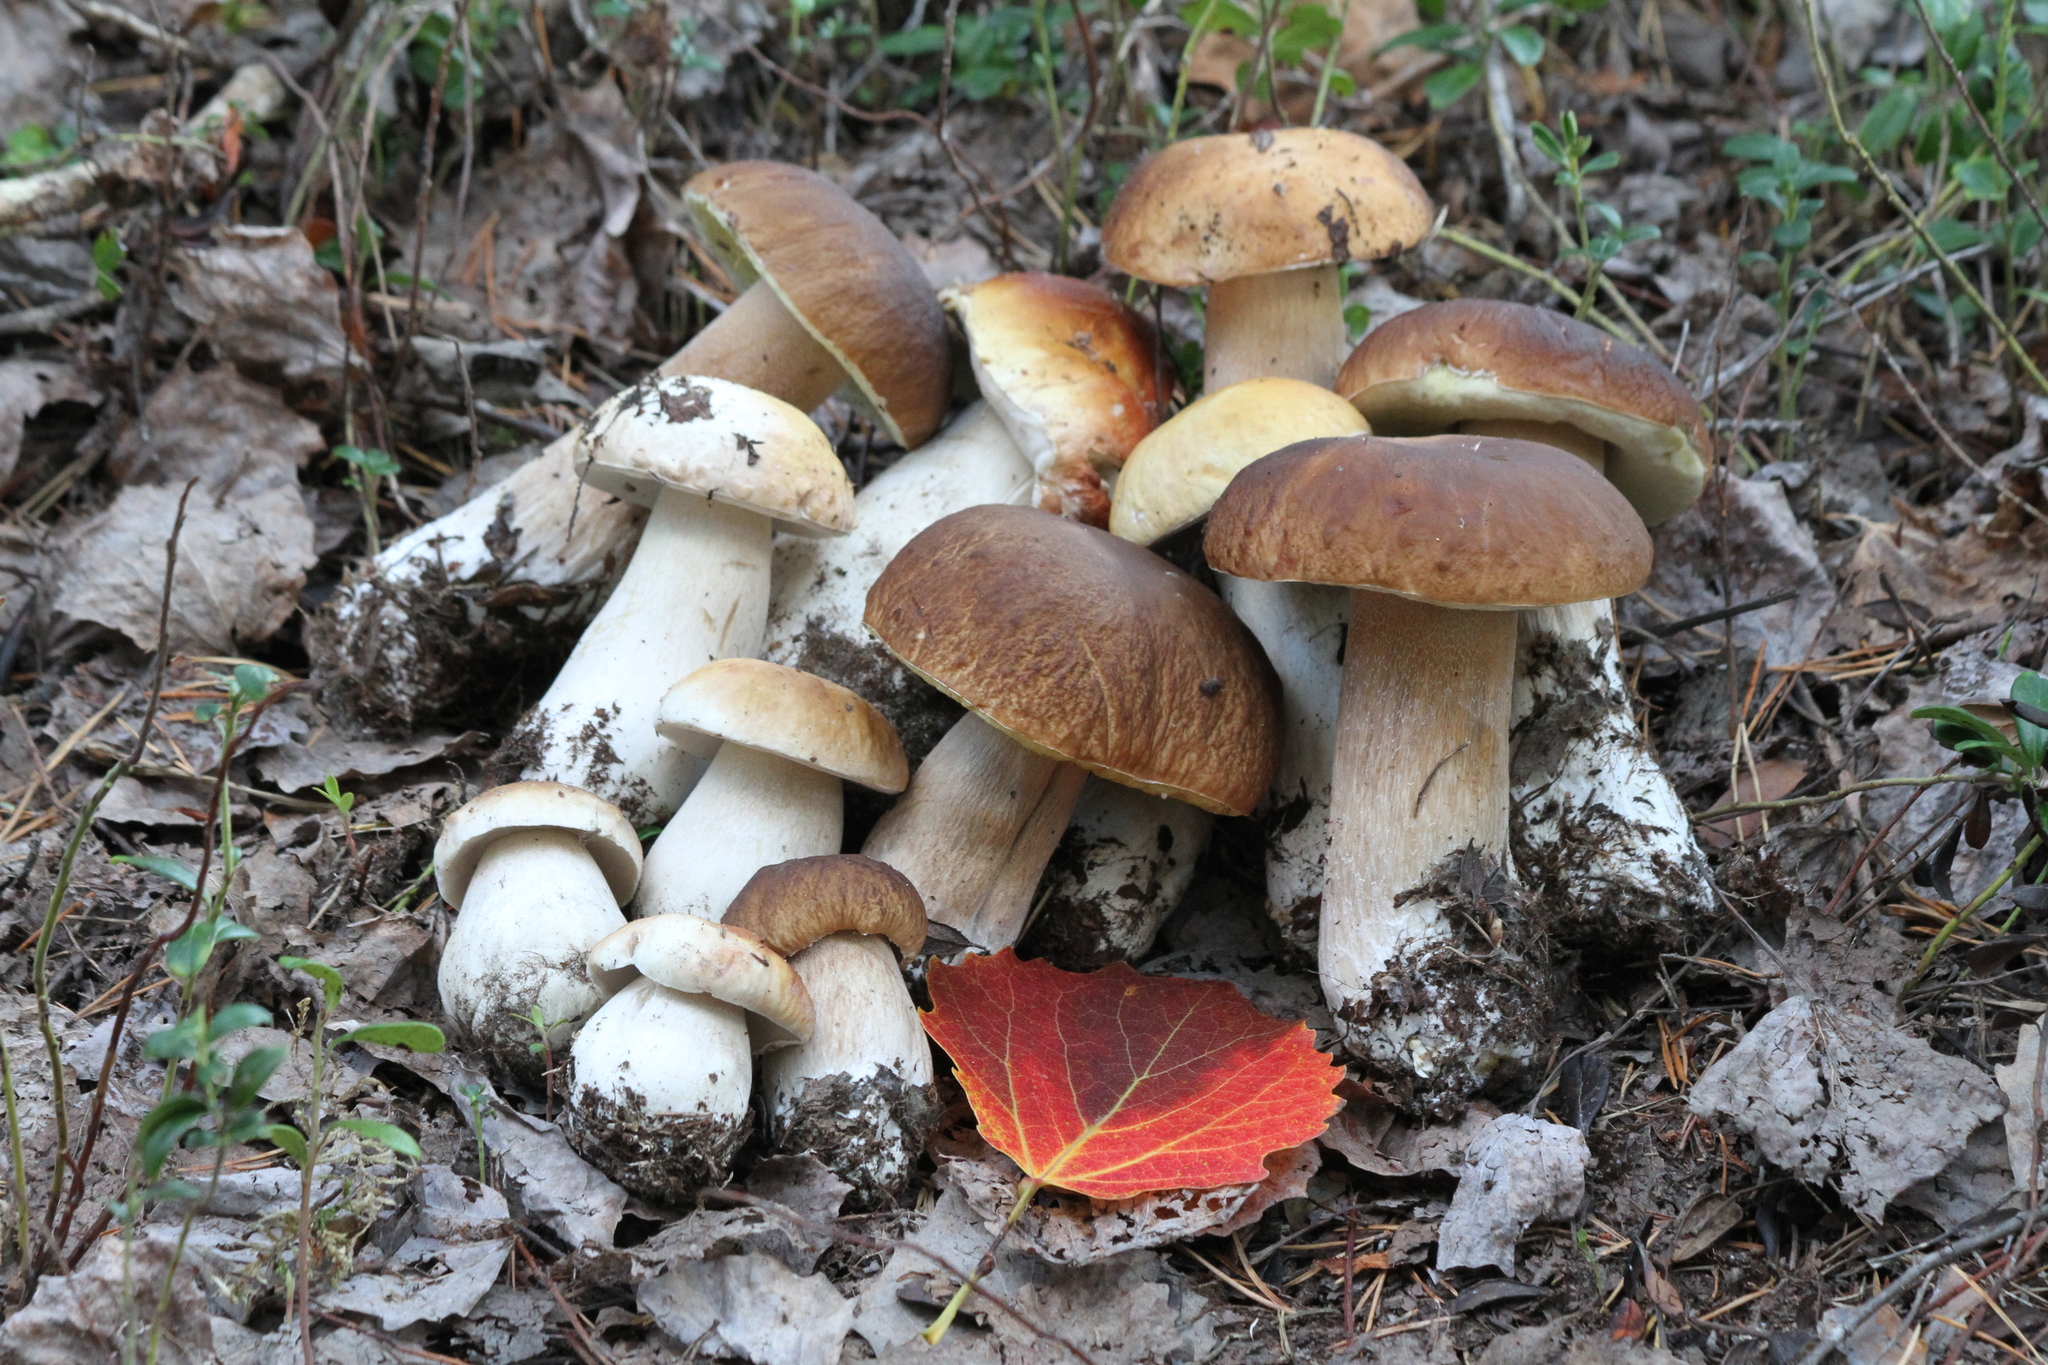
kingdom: Fungi
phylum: Basidiomycota
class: Agaricomycetes
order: Boletales
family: Boletaceae
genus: Boletus
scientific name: Boletus edulis
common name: Cep
